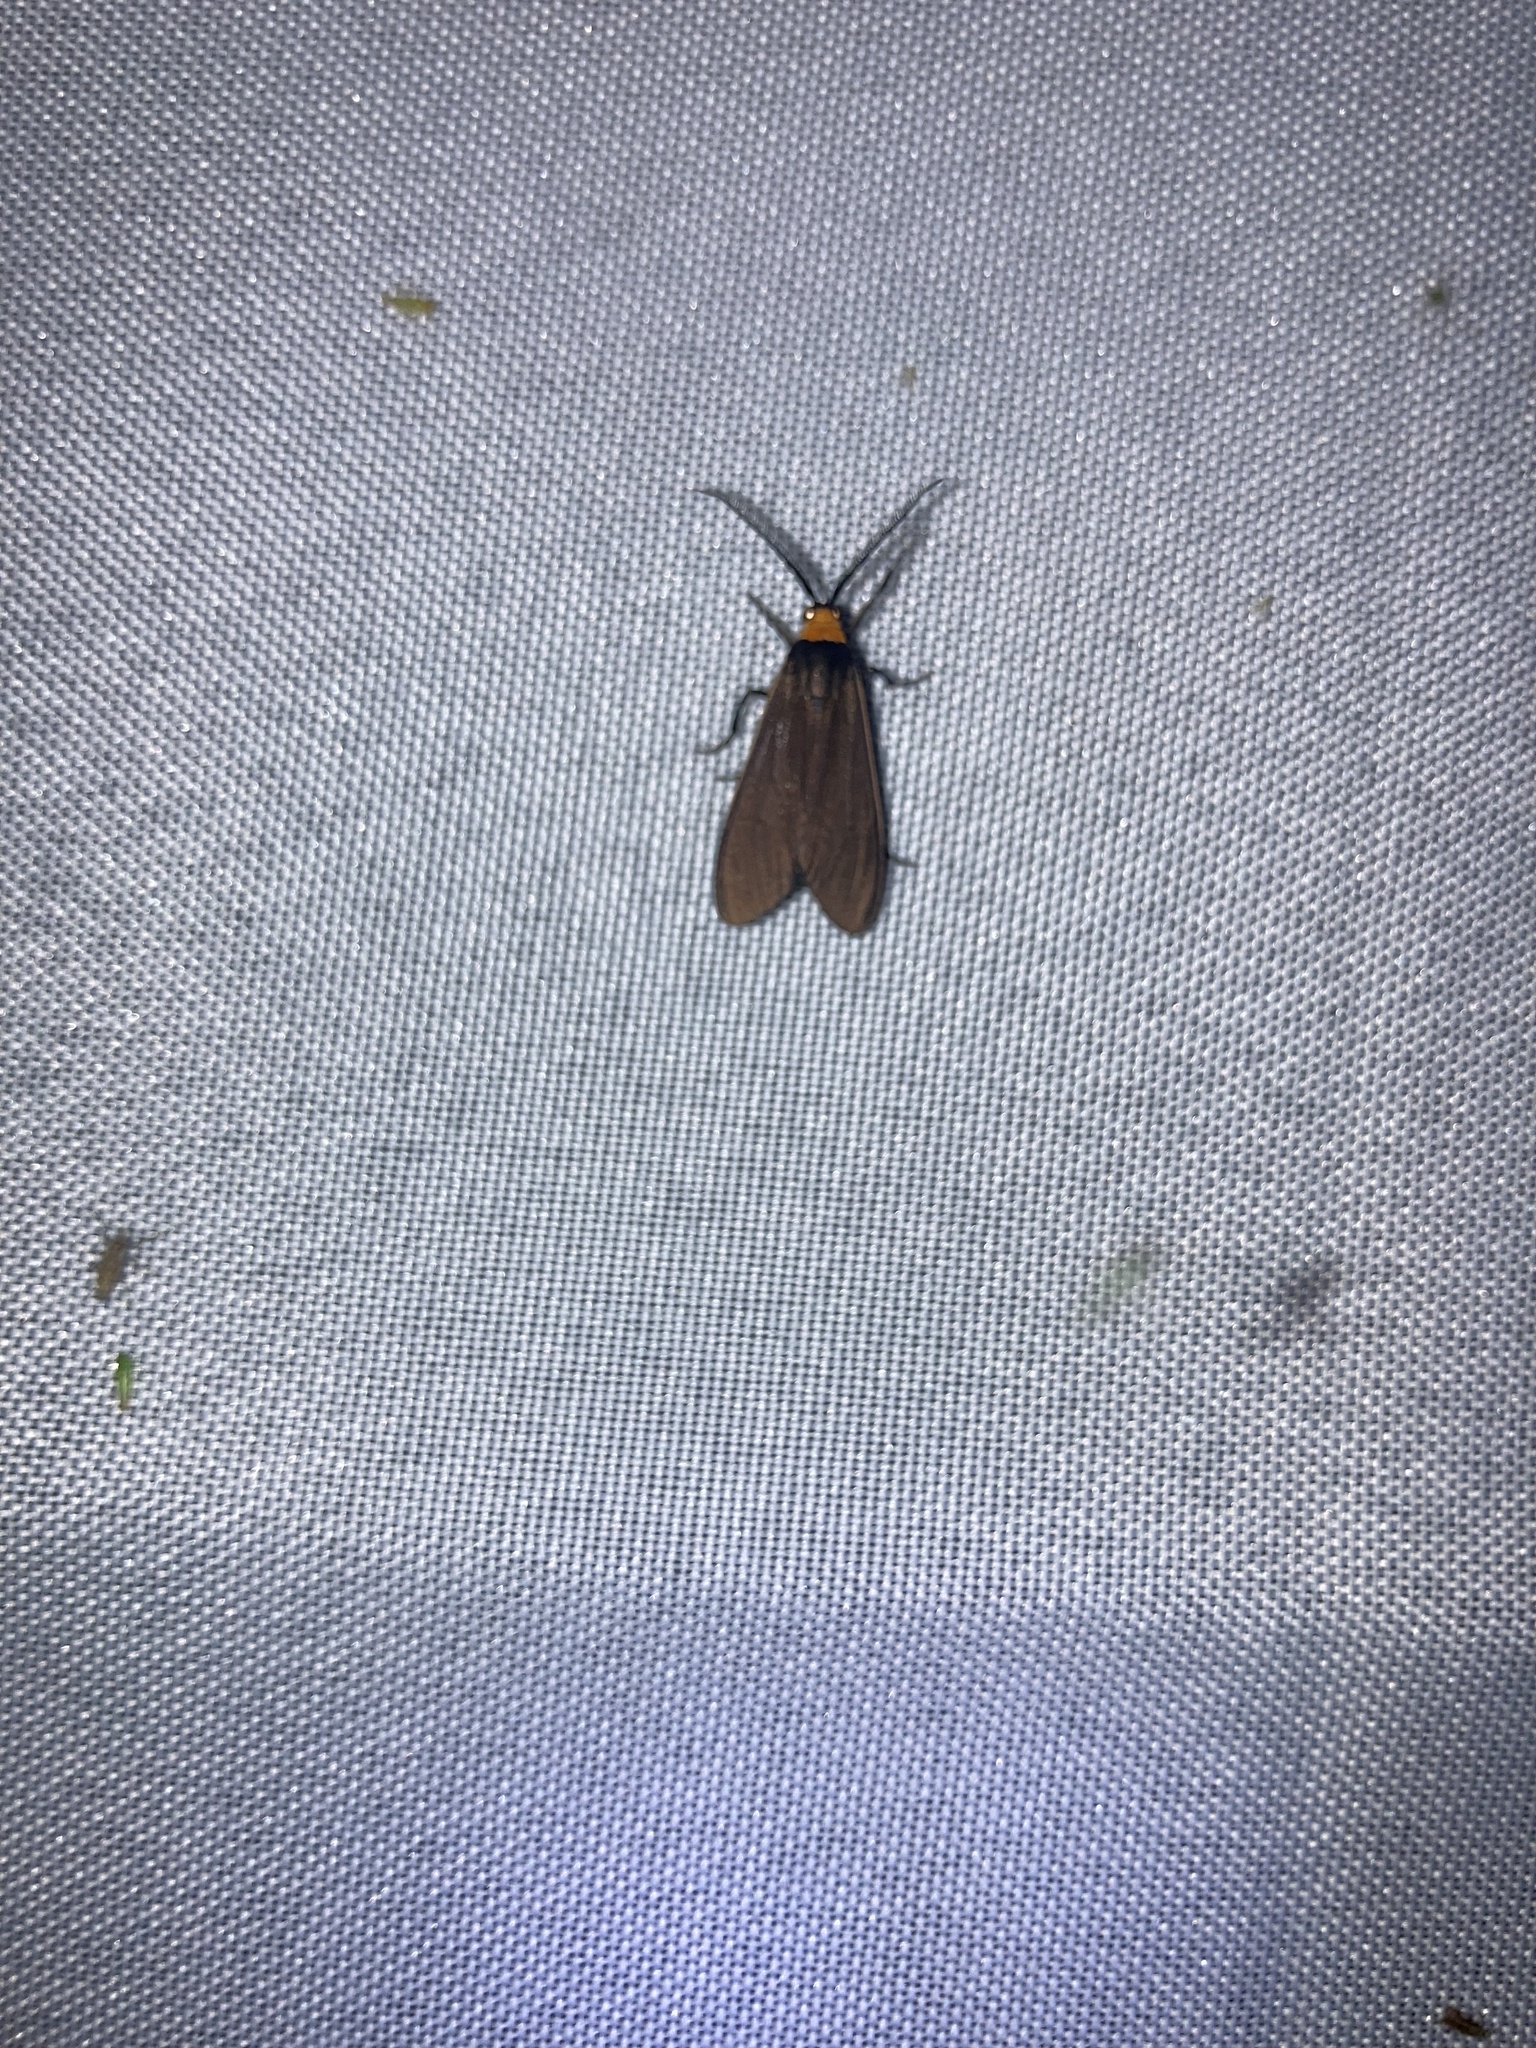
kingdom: Animalia
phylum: Arthropoda
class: Insecta
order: Lepidoptera
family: Erebidae
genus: Cisseps
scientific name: Cisseps fulvicollis
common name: Yellow-collared scape moth
